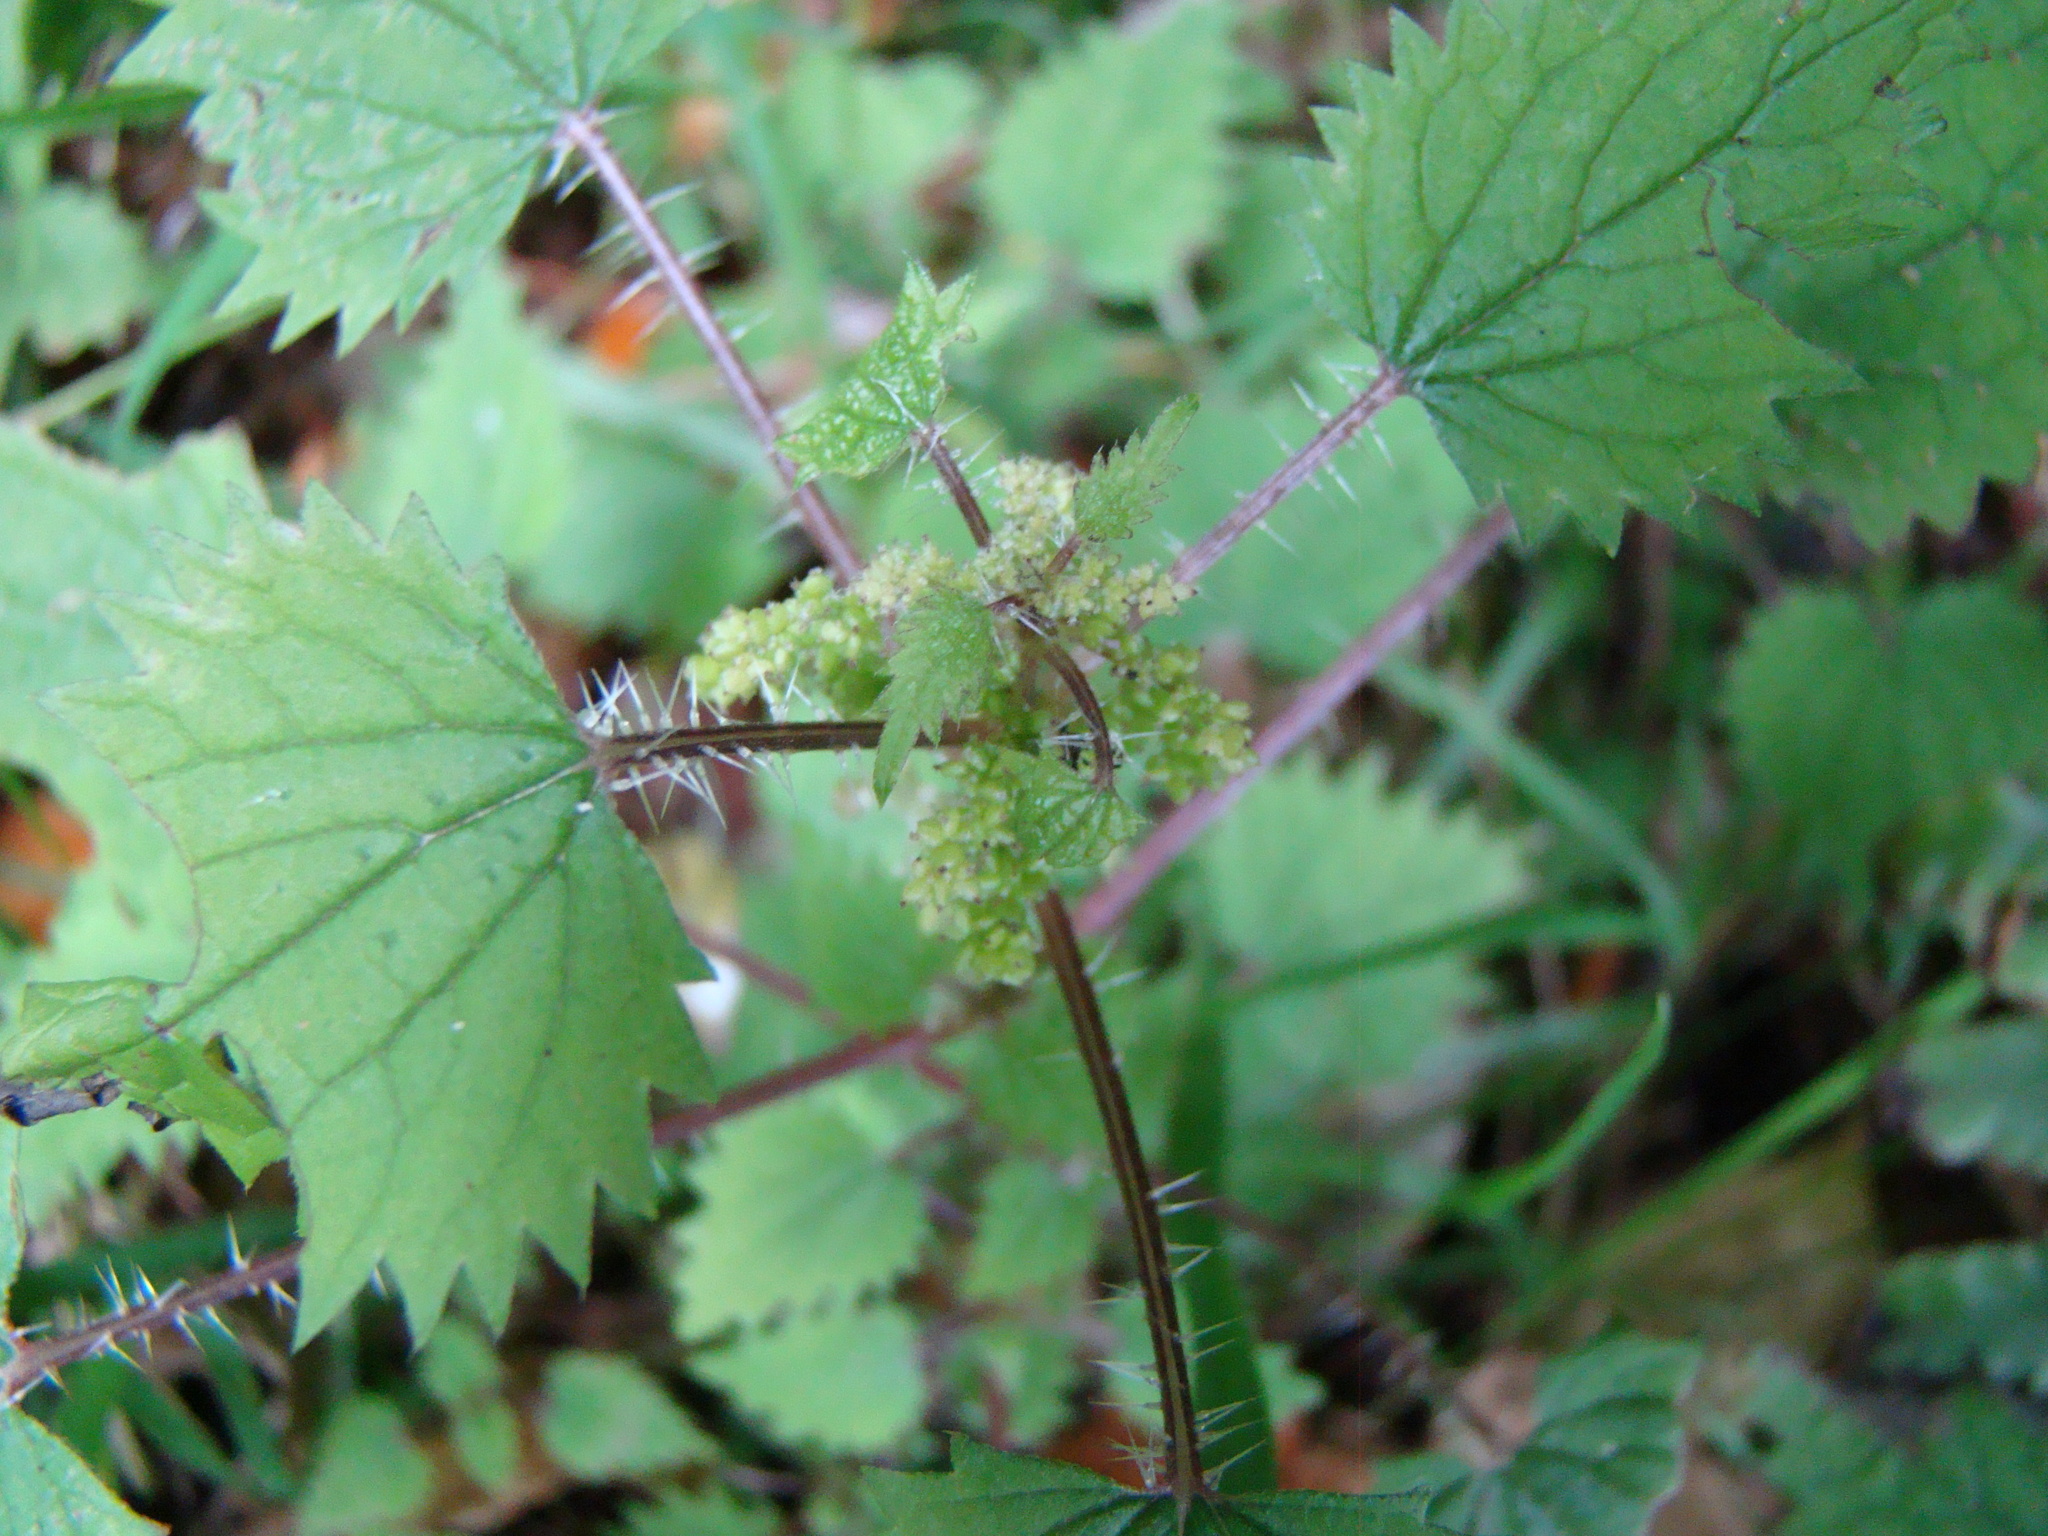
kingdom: Plantae
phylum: Tracheophyta
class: Magnoliopsida
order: Rosales
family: Urticaceae
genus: Urtica
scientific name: Urtica sykesii
